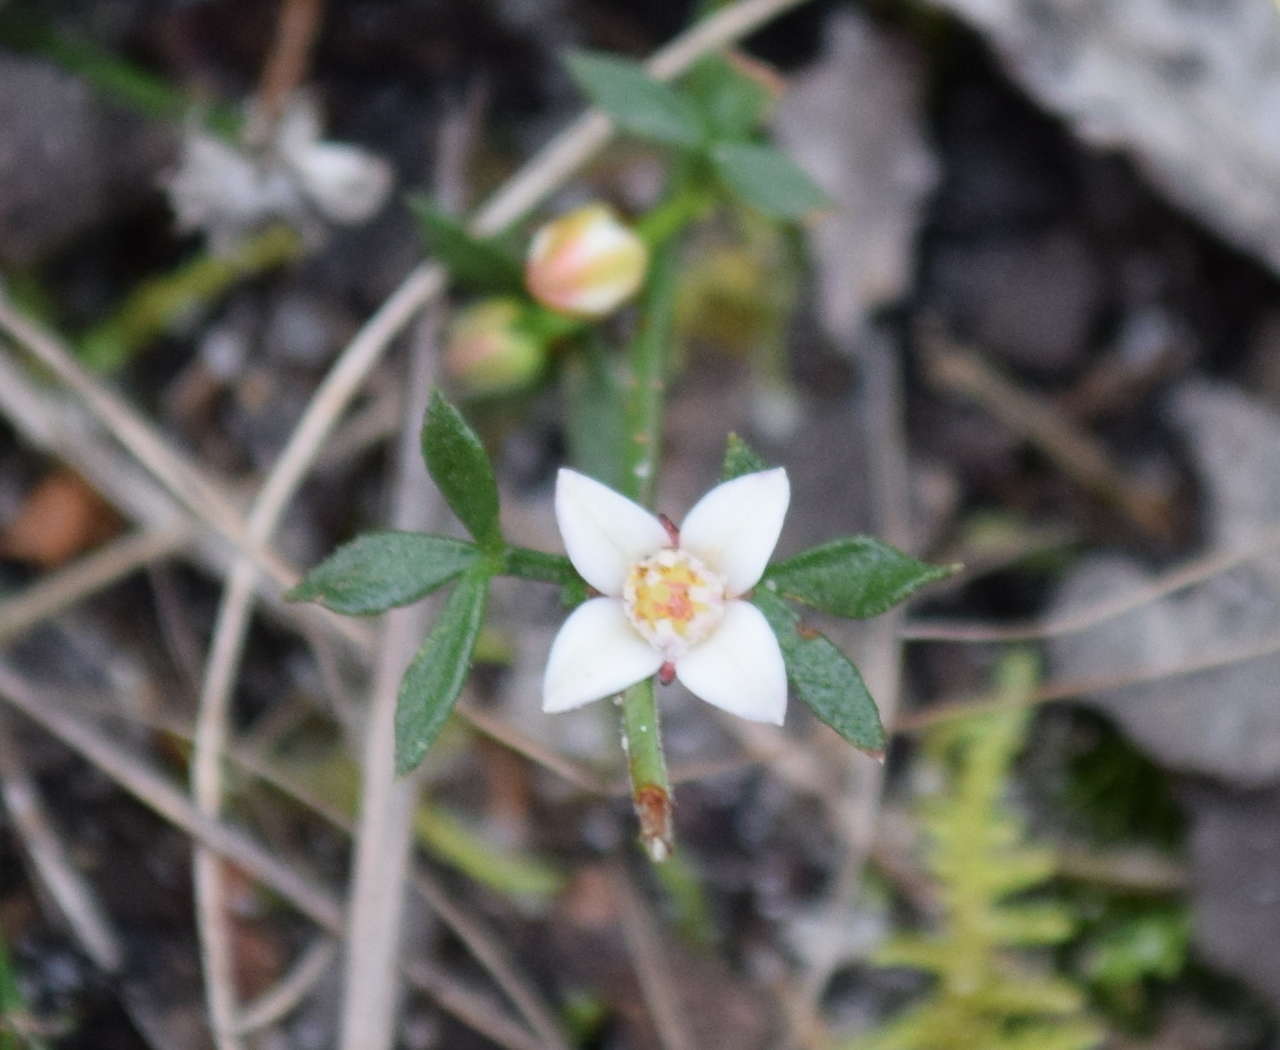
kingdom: Plantae
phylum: Tracheophyta
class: Magnoliopsida
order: Sapindales
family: Rutaceae
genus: Cyanothamnus
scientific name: Cyanothamnus nanus
